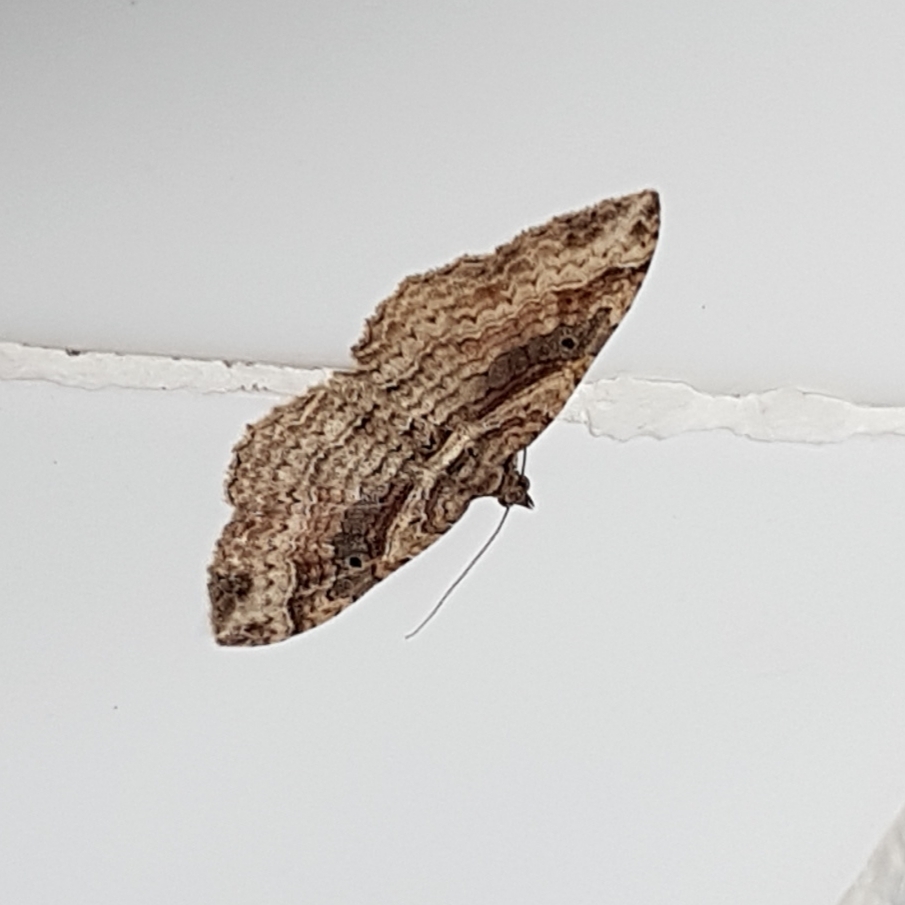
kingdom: Animalia
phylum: Arthropoda
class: Insecta
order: Lepidoptera
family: Geometridae
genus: Costaconvexa
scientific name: Costaconvexa centrostrigaria
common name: Bent-line carpet
